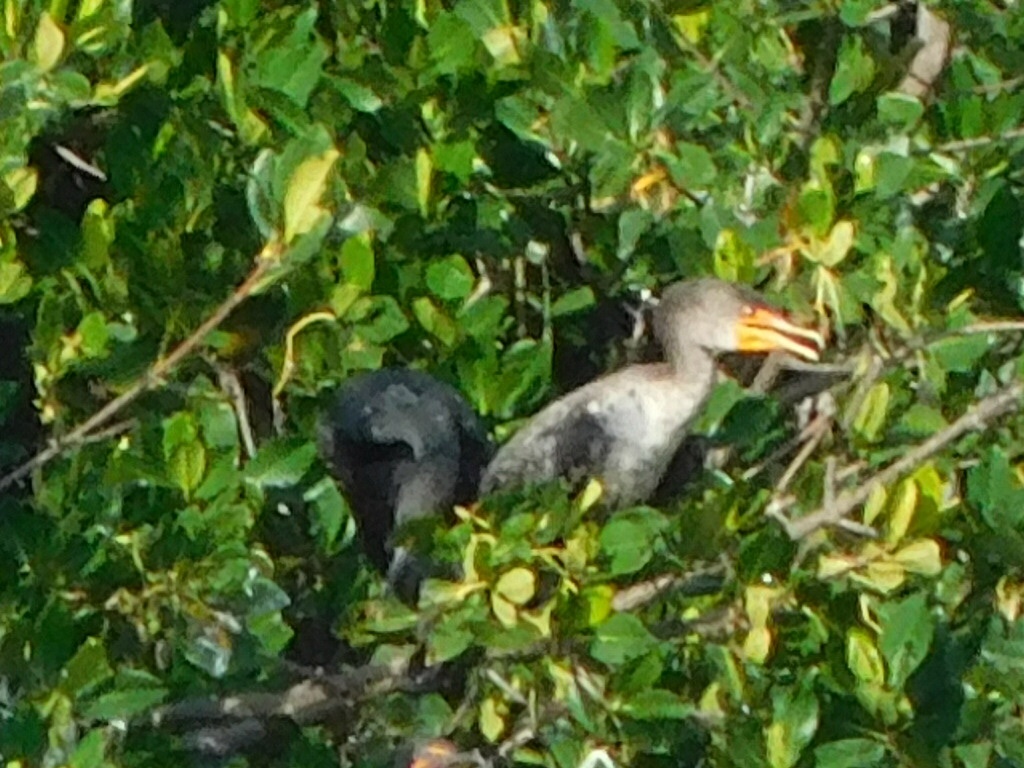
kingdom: Animalia
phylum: Chordata
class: Aves
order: Suliformes
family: Phalacrocoracidae
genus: Phalacrocorax
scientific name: Phalacrocorax auritus
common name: Double-crested cormorant
